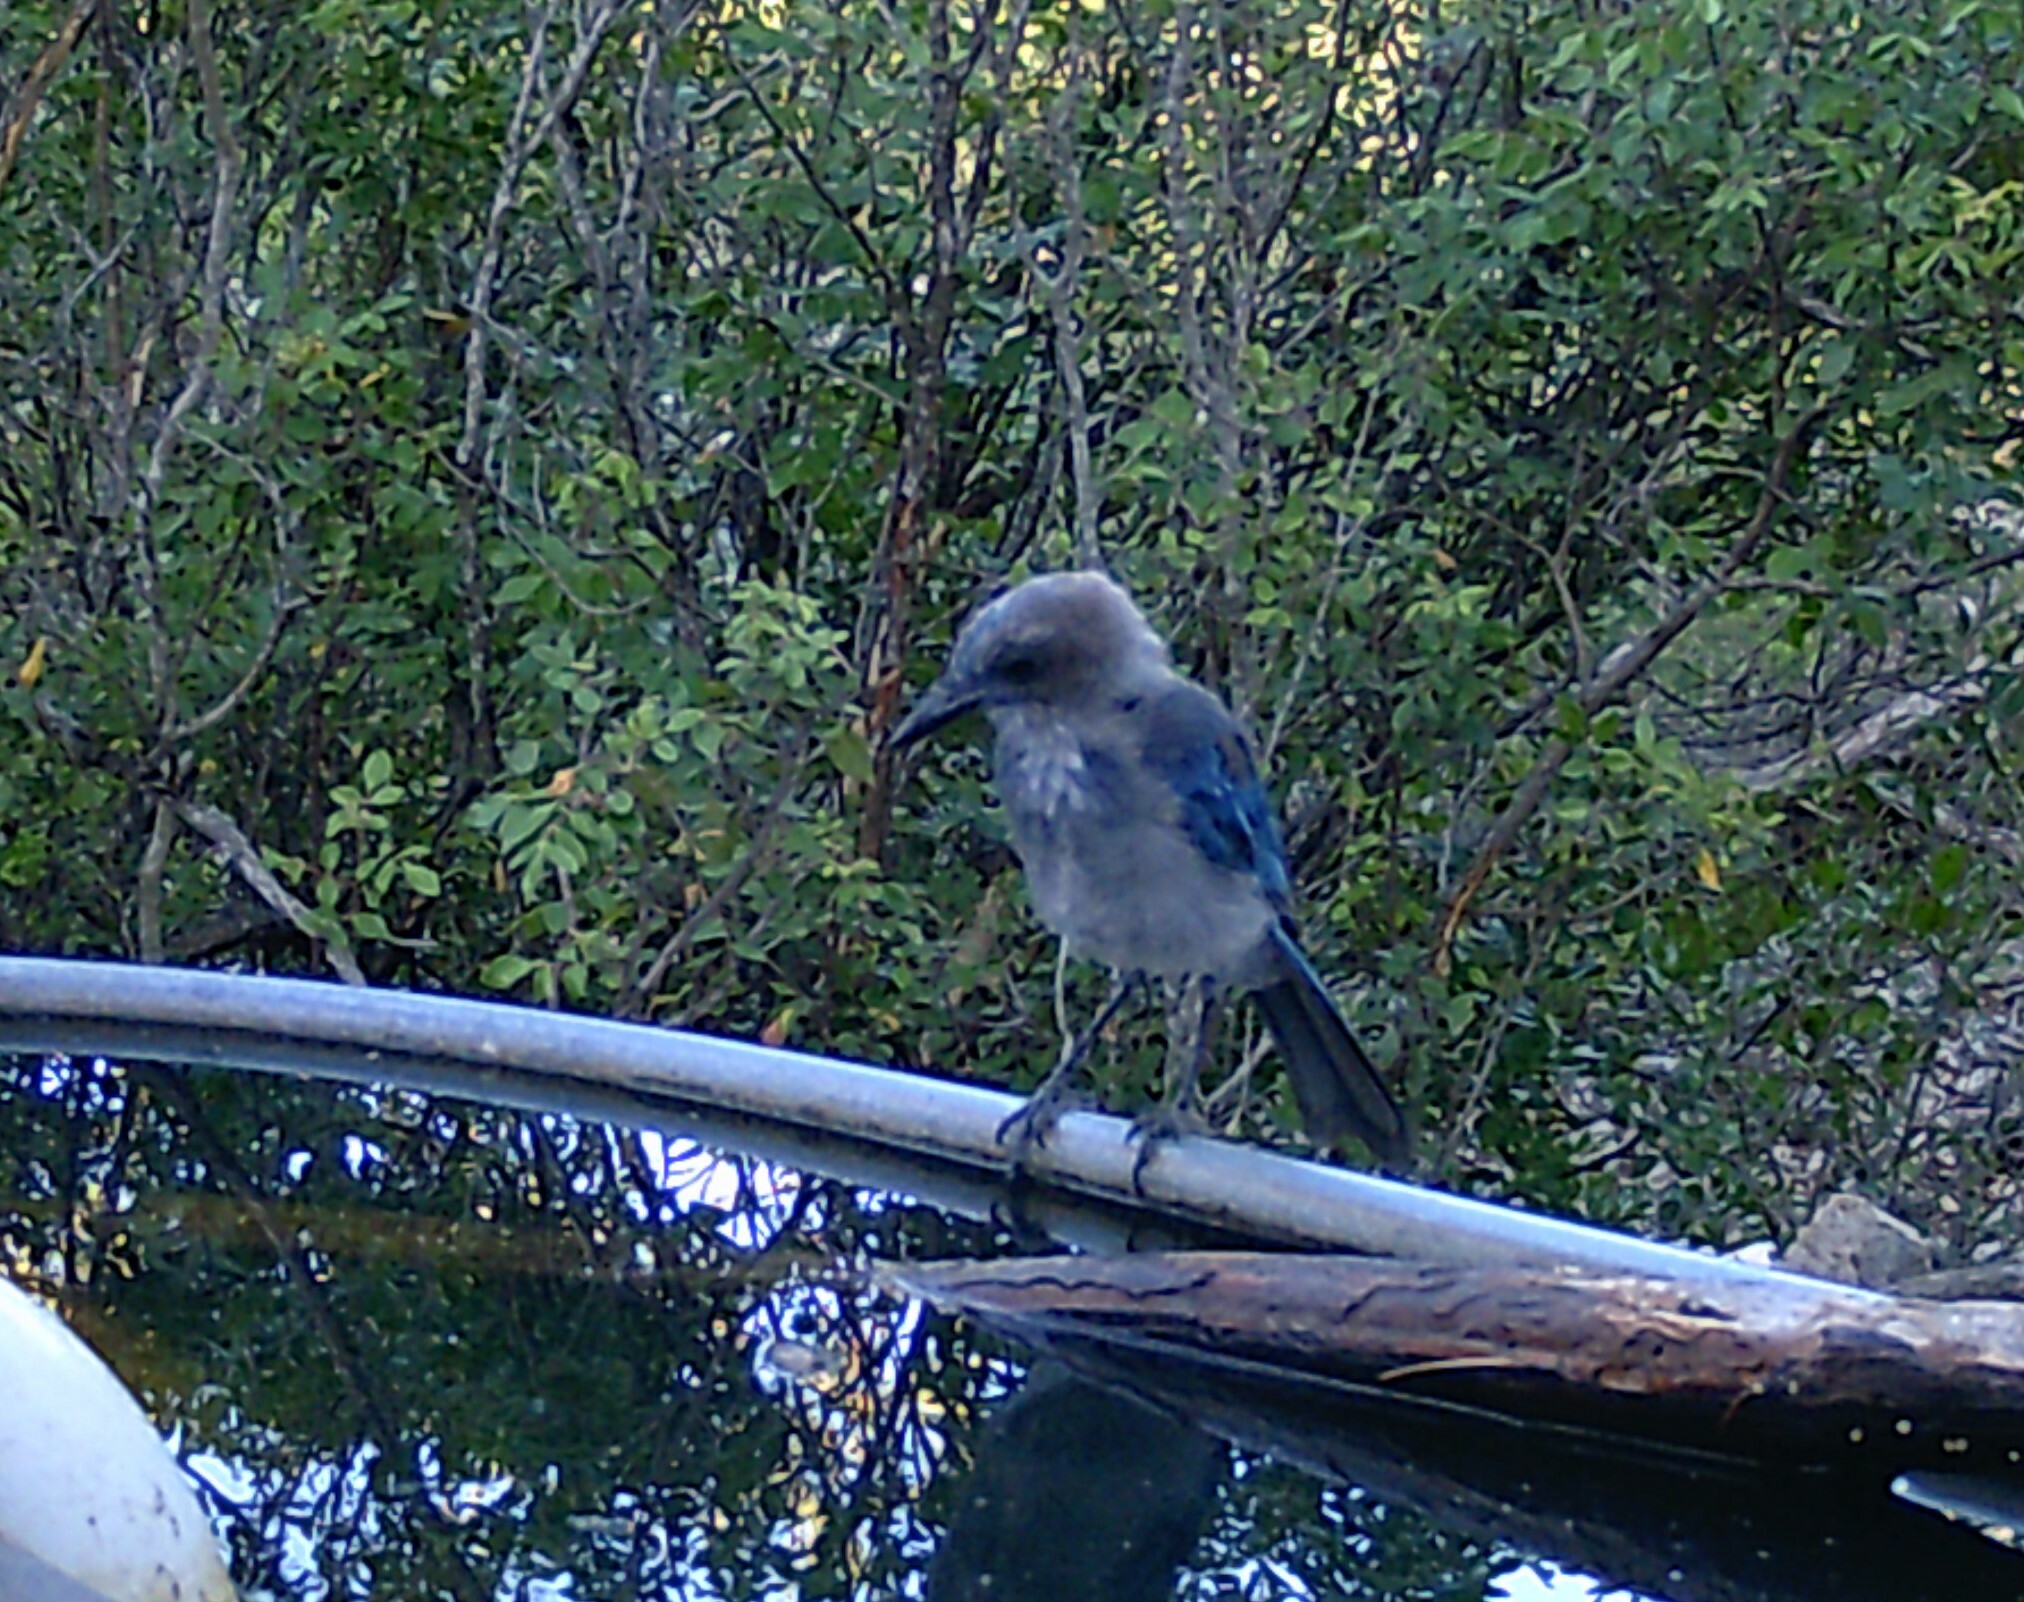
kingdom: Animalia
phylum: Chordata
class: Aves
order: Passeriformes
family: Corvidae
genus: Aphelocoma
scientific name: Aphelocoma woodhouseii
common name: Woodhouse's scrub-jay
